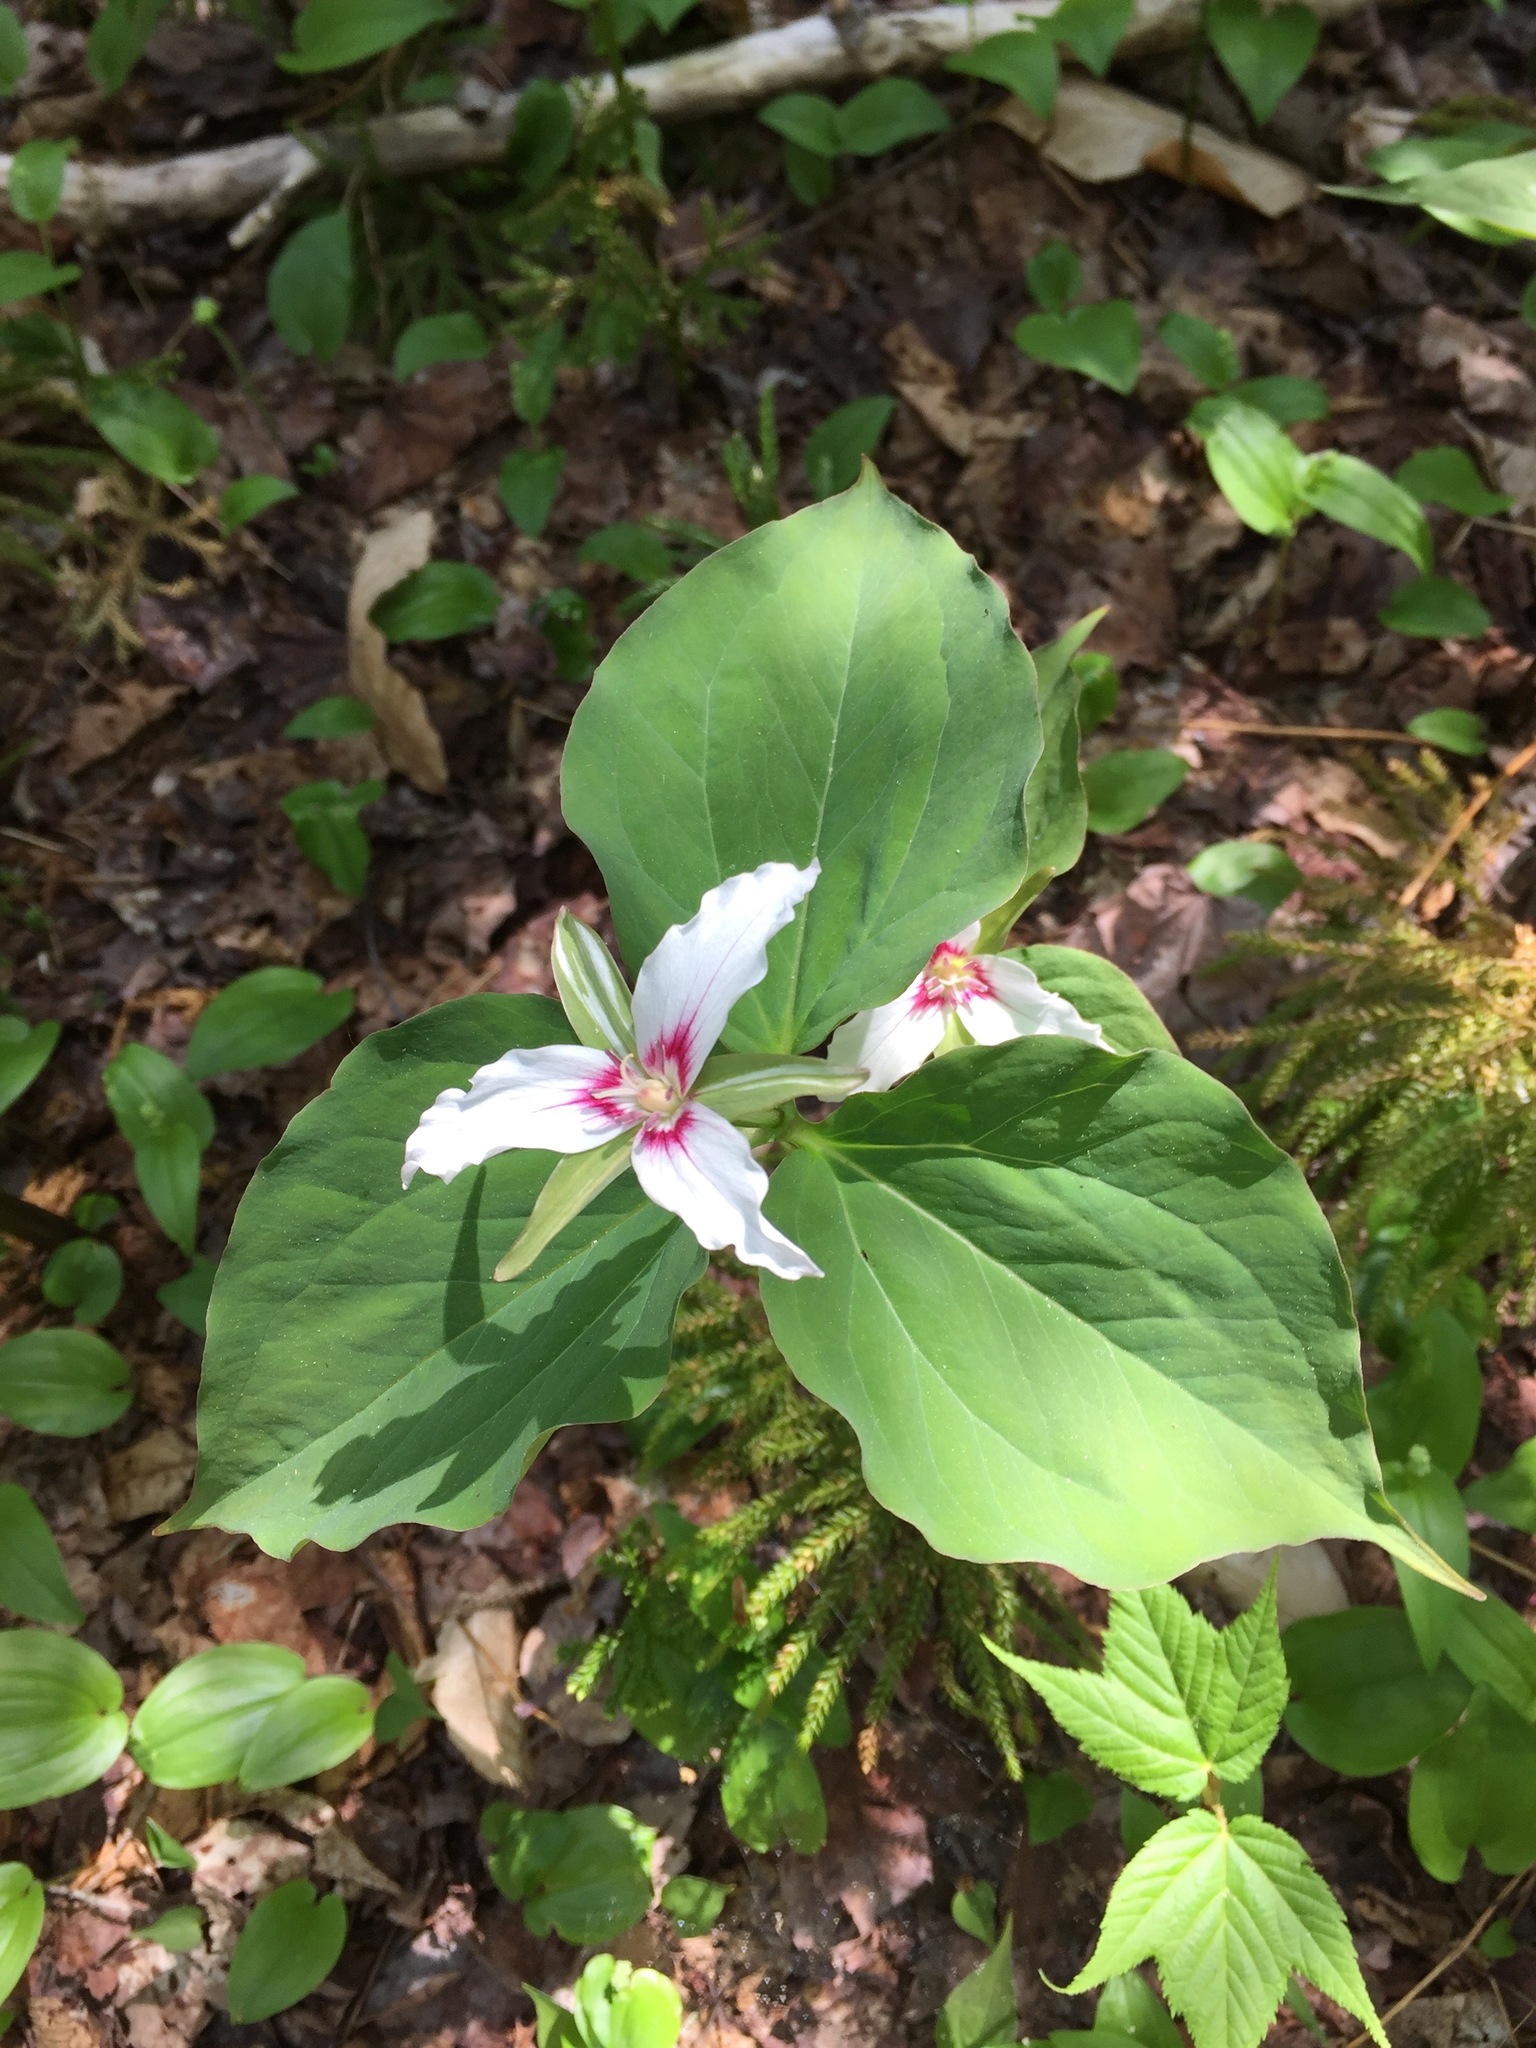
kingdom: Plantae
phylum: Tracheophyta
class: Liliopsida
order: Liliales
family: Melanthiaceae
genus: Trillium
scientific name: Trillium undulatum
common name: Paint trillium
